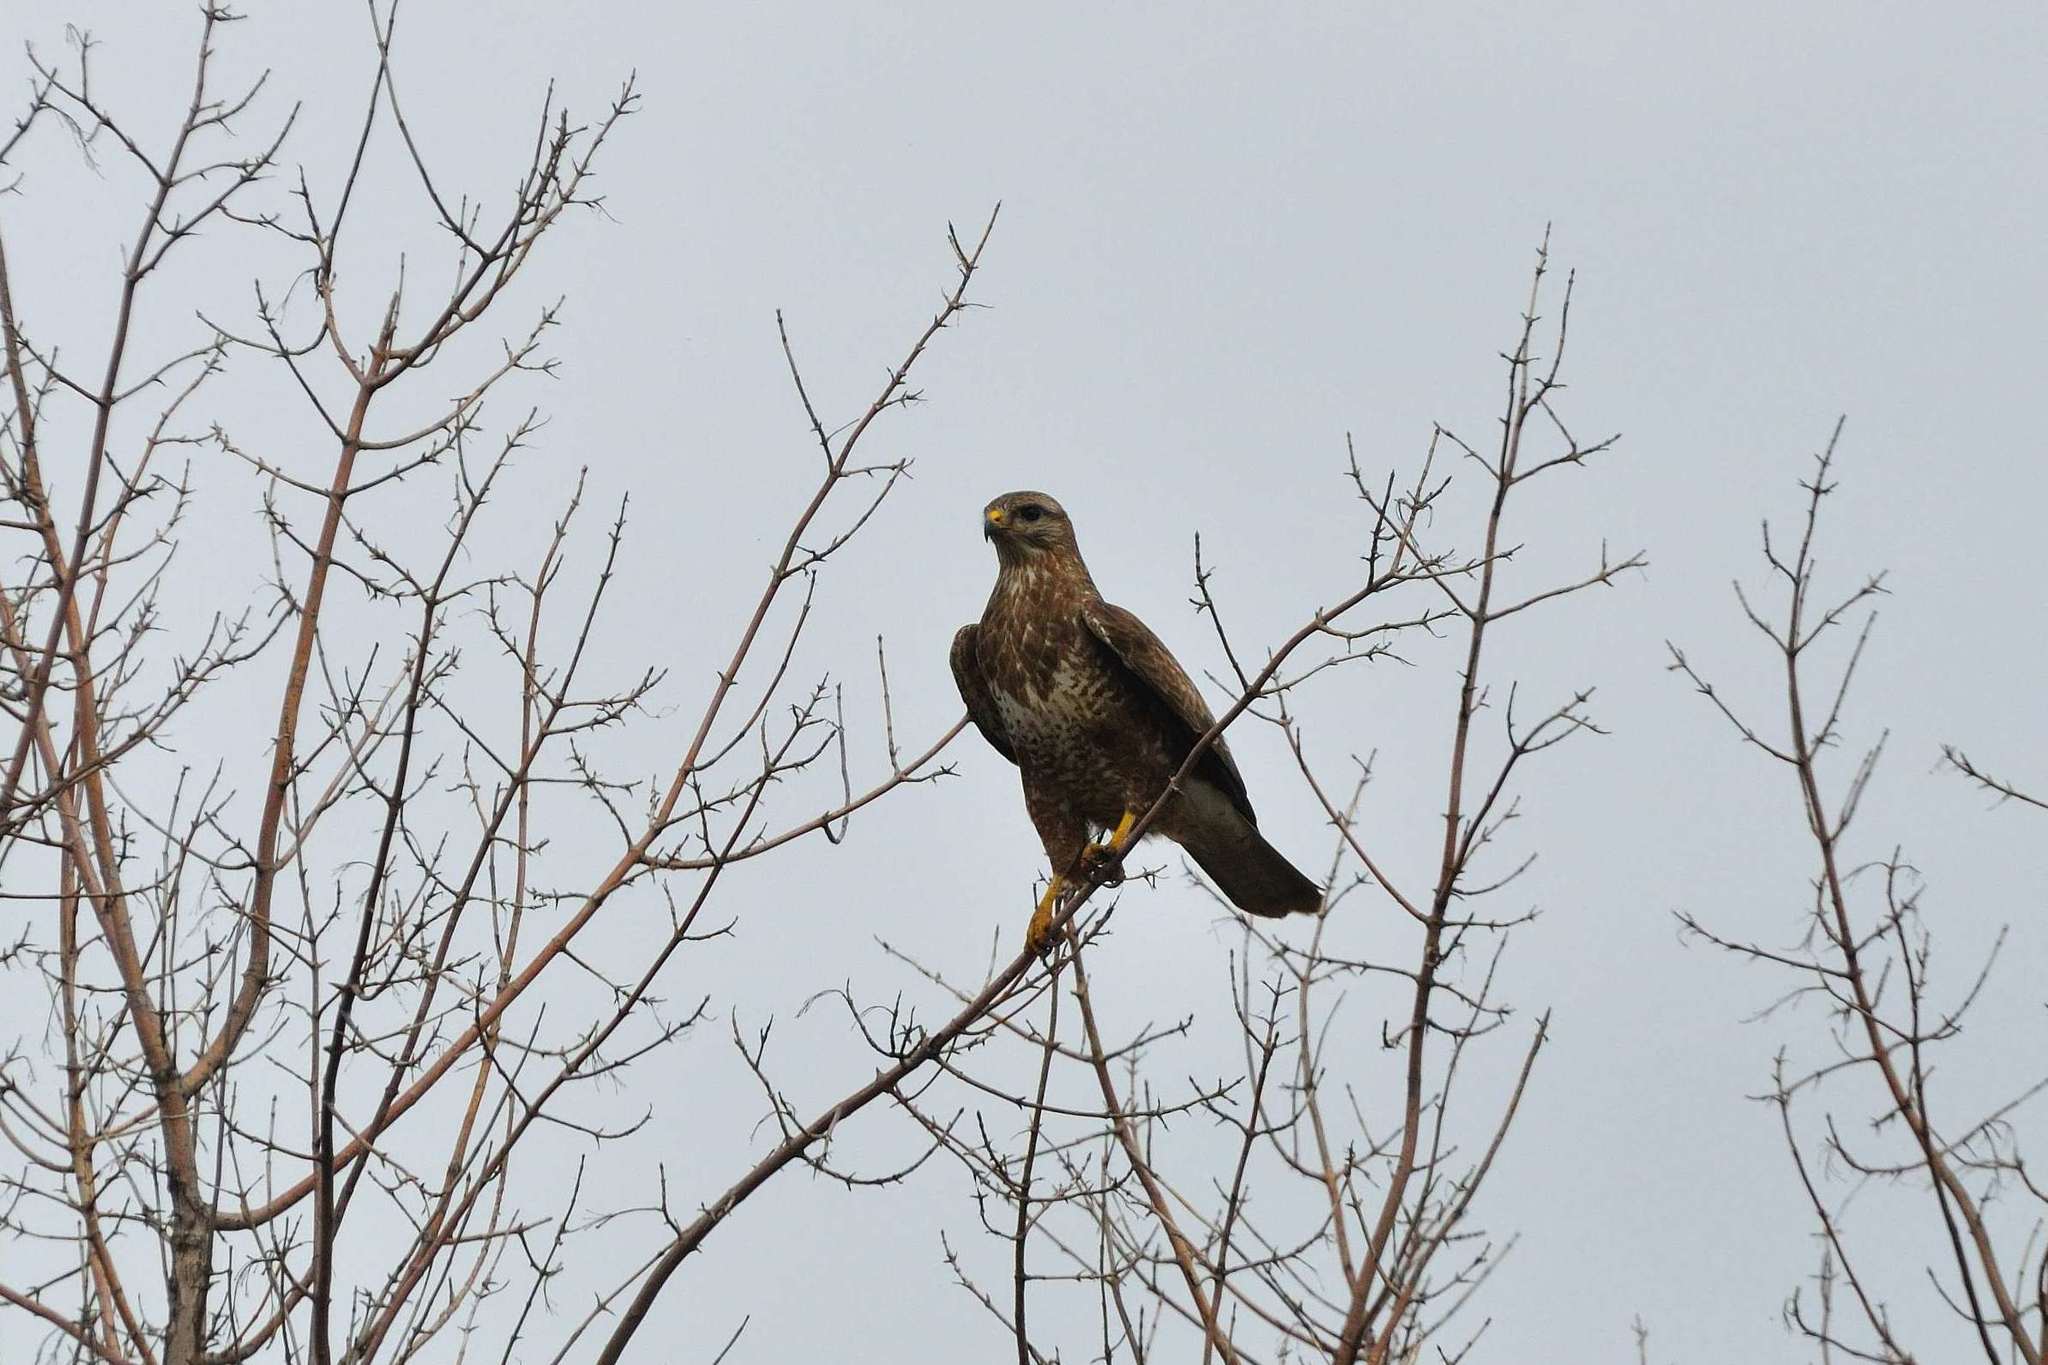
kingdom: Animalia
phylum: Chordata
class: Aves
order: Accipitriformes
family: Accipitridae
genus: Buteo
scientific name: Buteo buteo
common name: Common buzzard
